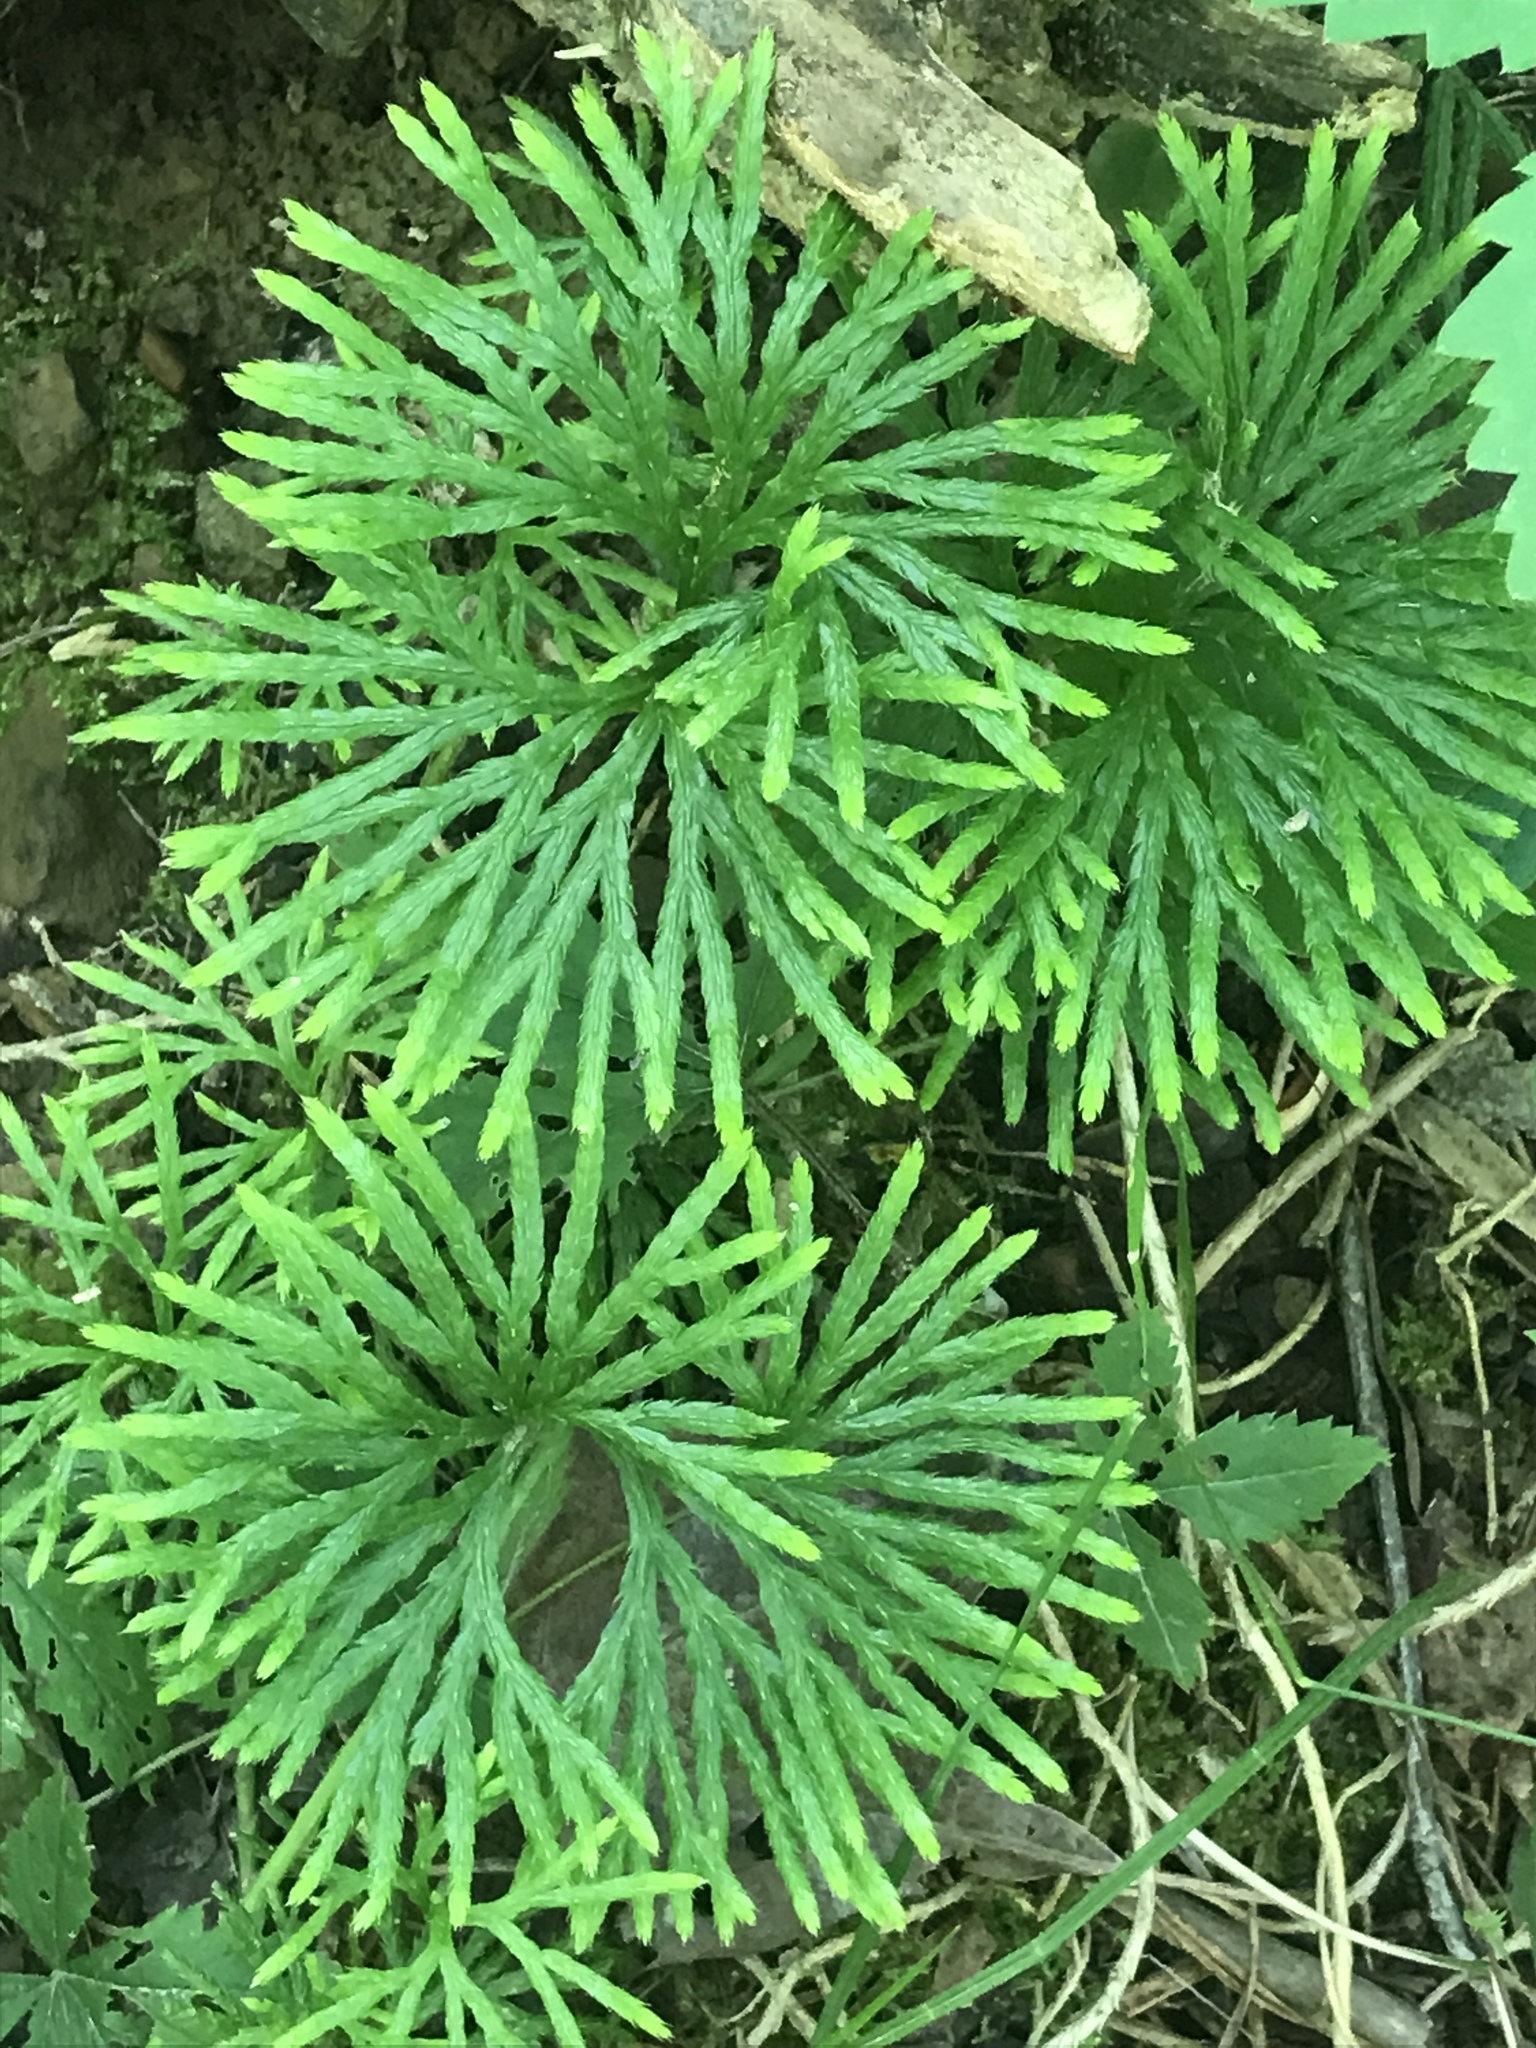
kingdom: Plantae
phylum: Tracheophyta
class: Lycopodiopsida
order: Lycopodiales
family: Lycopodiaceae
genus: Diphasiastrum
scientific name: Diphasiastrum digitatum
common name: Southern running-pine
